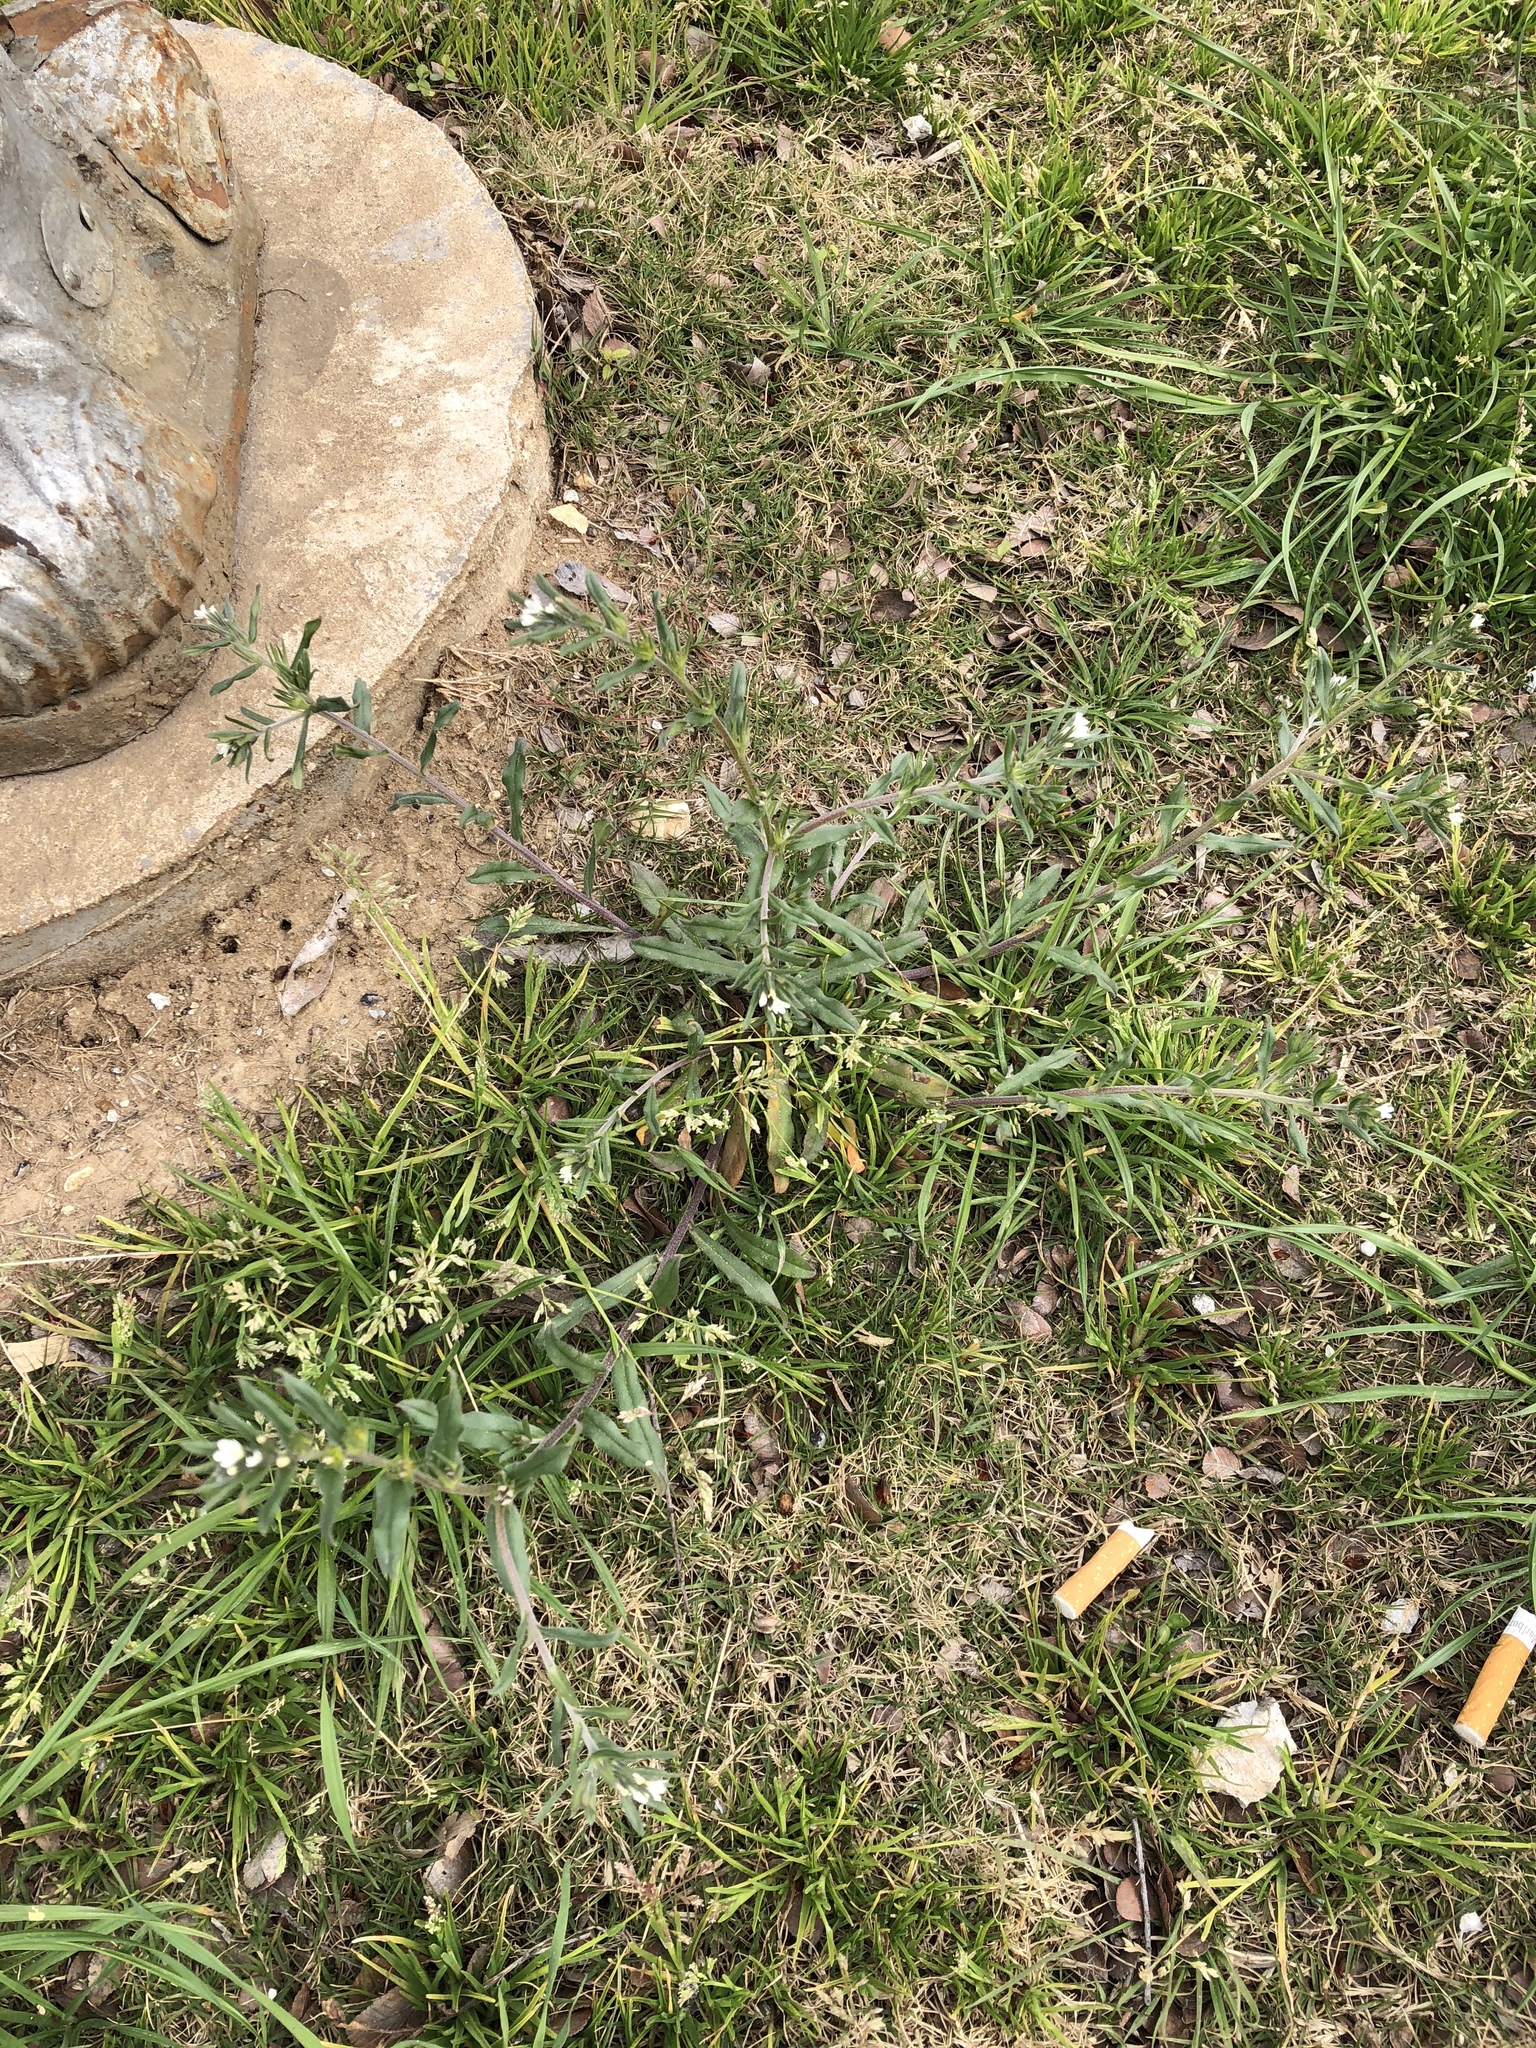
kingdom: Plantae
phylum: Tracheophyta
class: Magnoliopsida
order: Boraginales
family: Boraginaceae
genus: Buglossoides
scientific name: Buglossoides arvensis
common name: Corn gromwell
